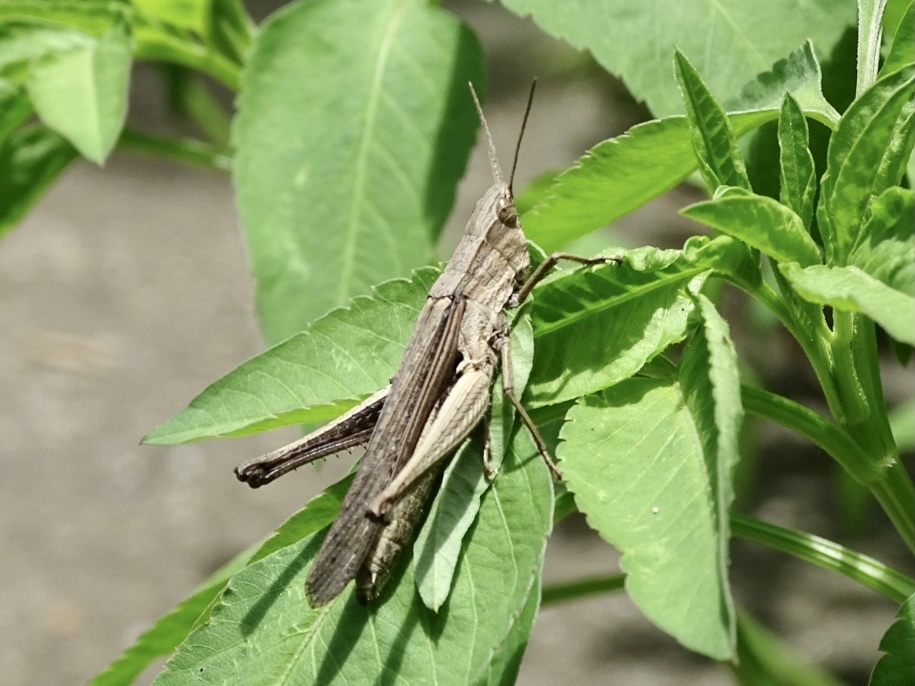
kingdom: Animalia
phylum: Arthropoda
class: Insecta
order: Orthoptera
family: Acrididae
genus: Phlaeoba
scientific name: Phlaeoba infumata
